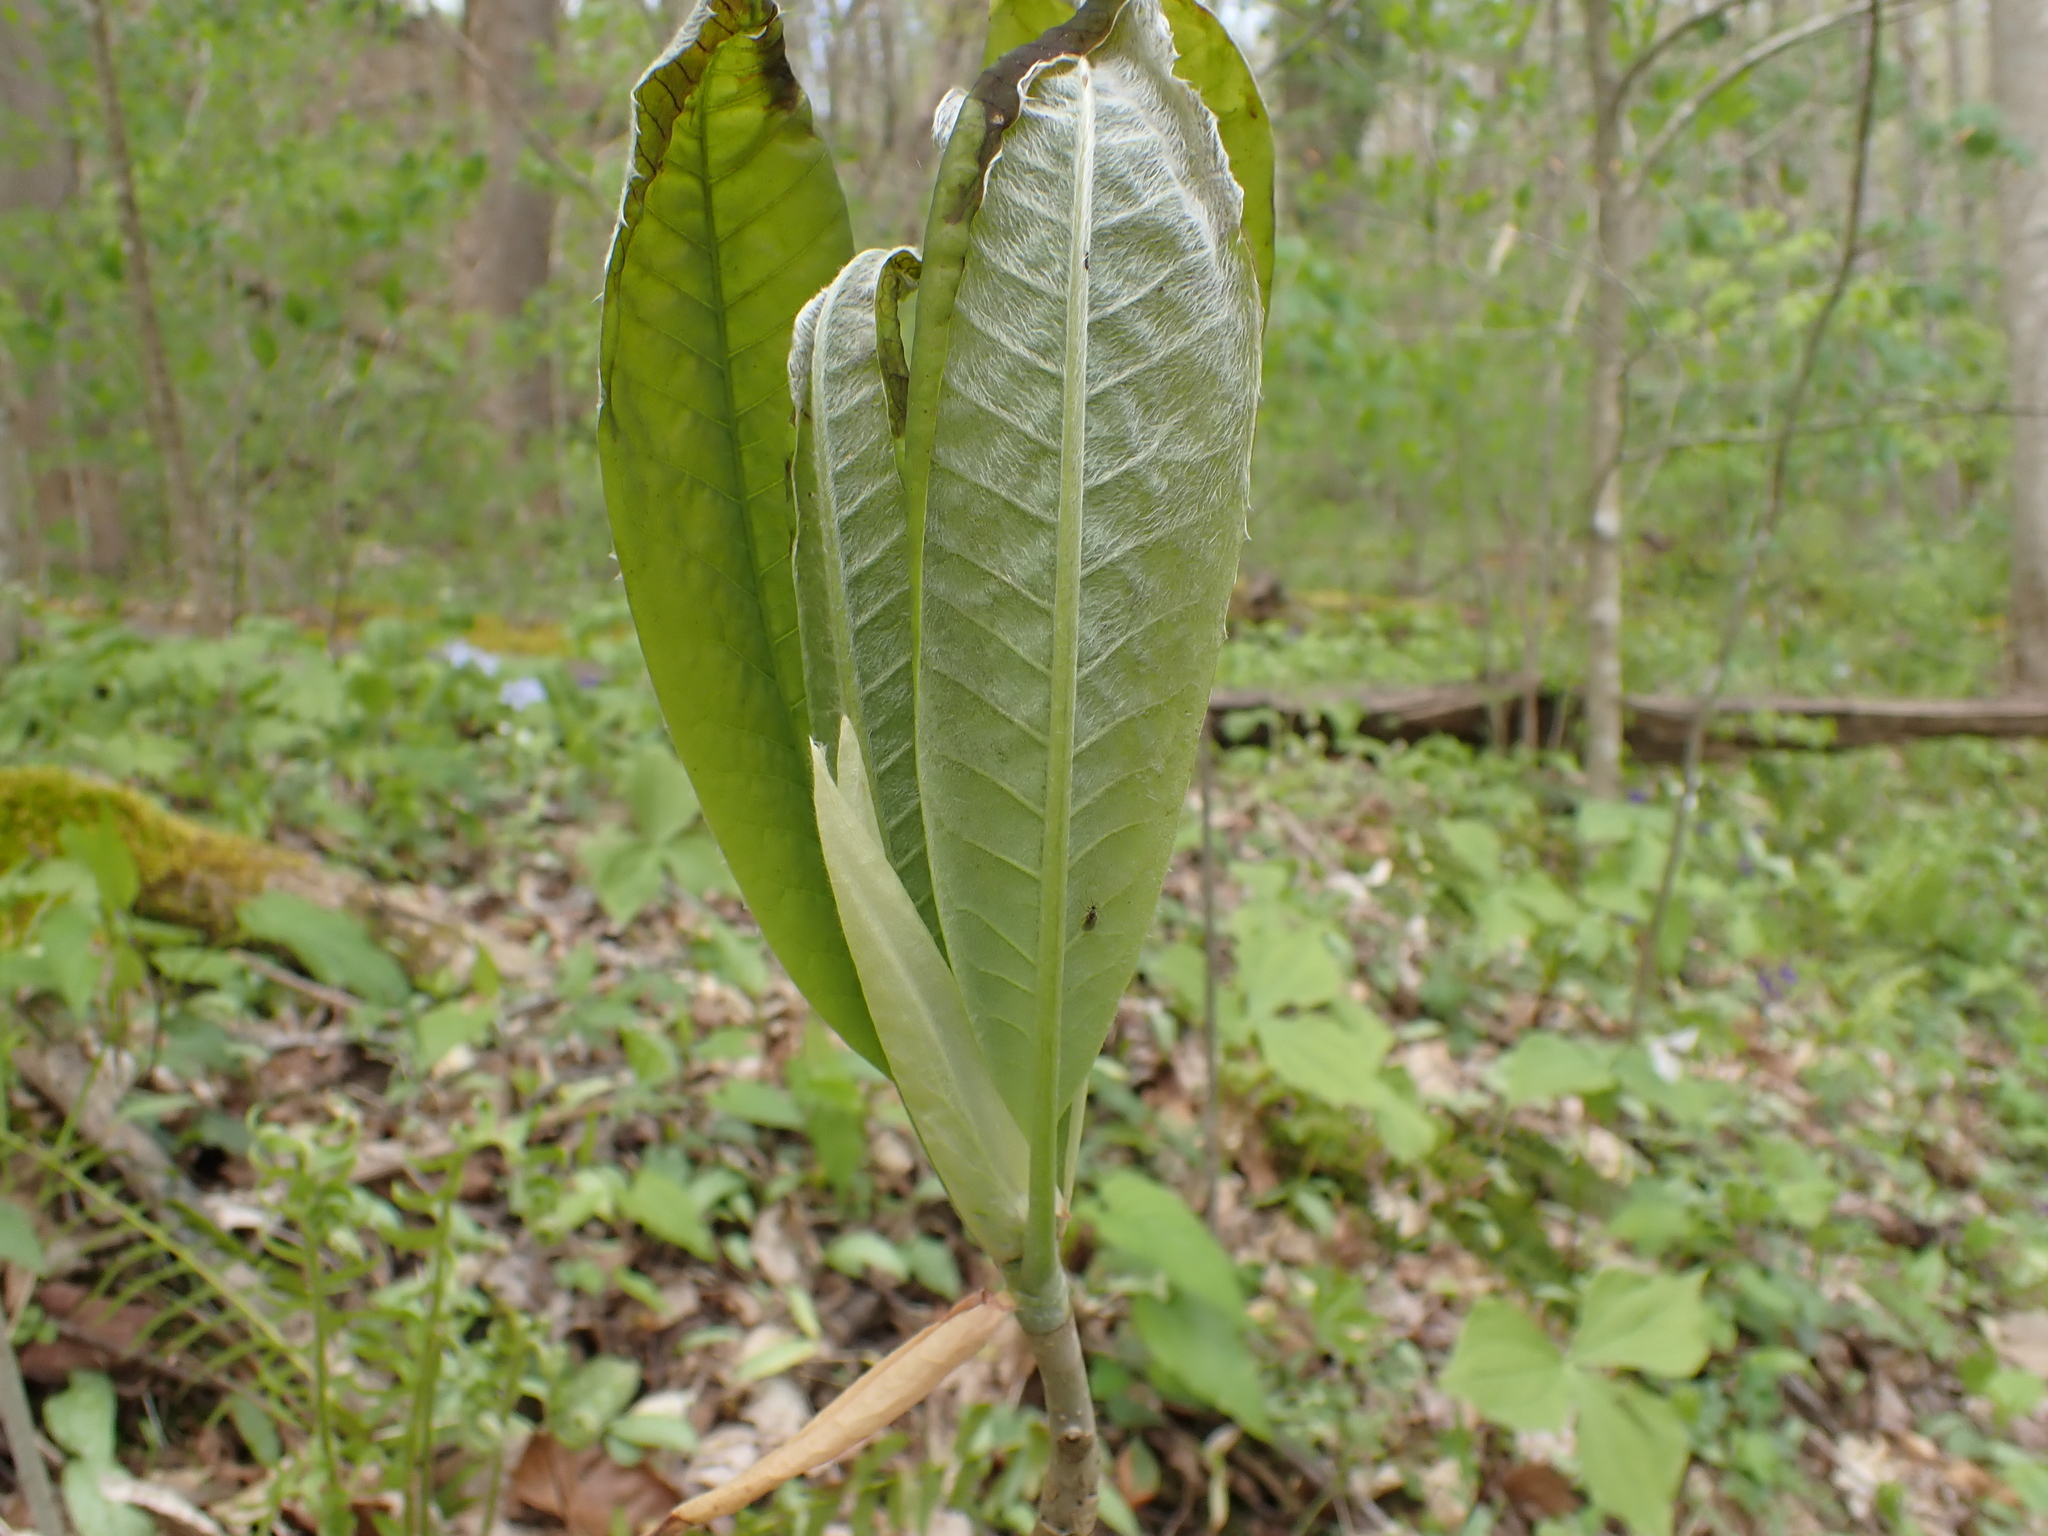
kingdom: Plantae
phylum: Tracheophyta
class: Magnoliopsida
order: Magnoliales
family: Magnoliaceae
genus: Magnolia
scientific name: Magnolia tripetala
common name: Umbrella magnolia
